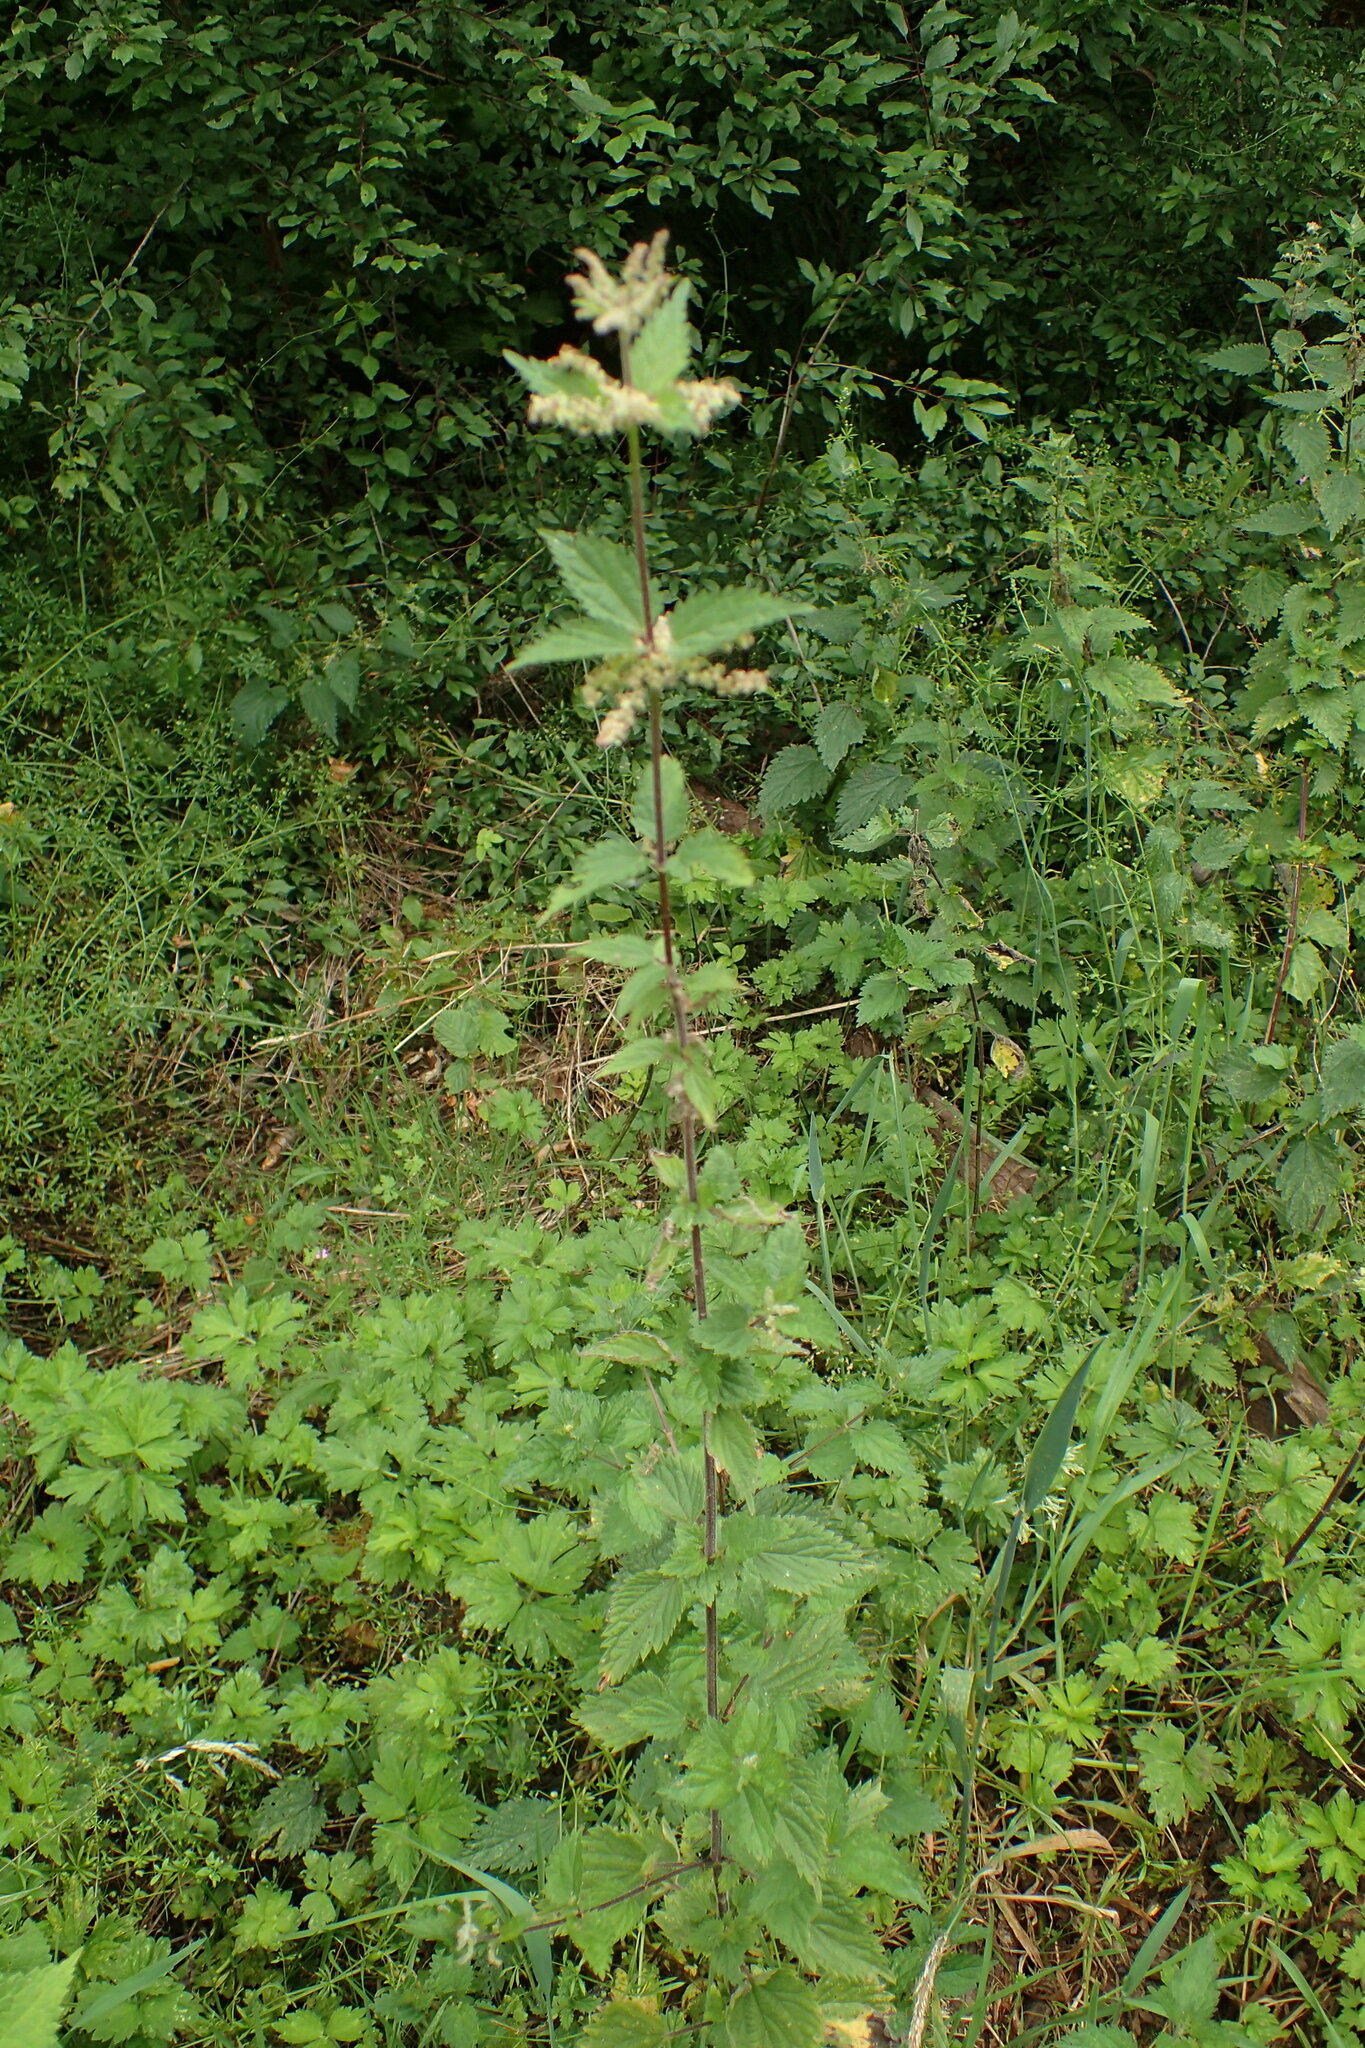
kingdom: Plantae
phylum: Tracheophyta
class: Magnoliopsida
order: Rosales
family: Urticaceae
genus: Urtica
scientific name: Urtica dioica
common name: Common nettle
